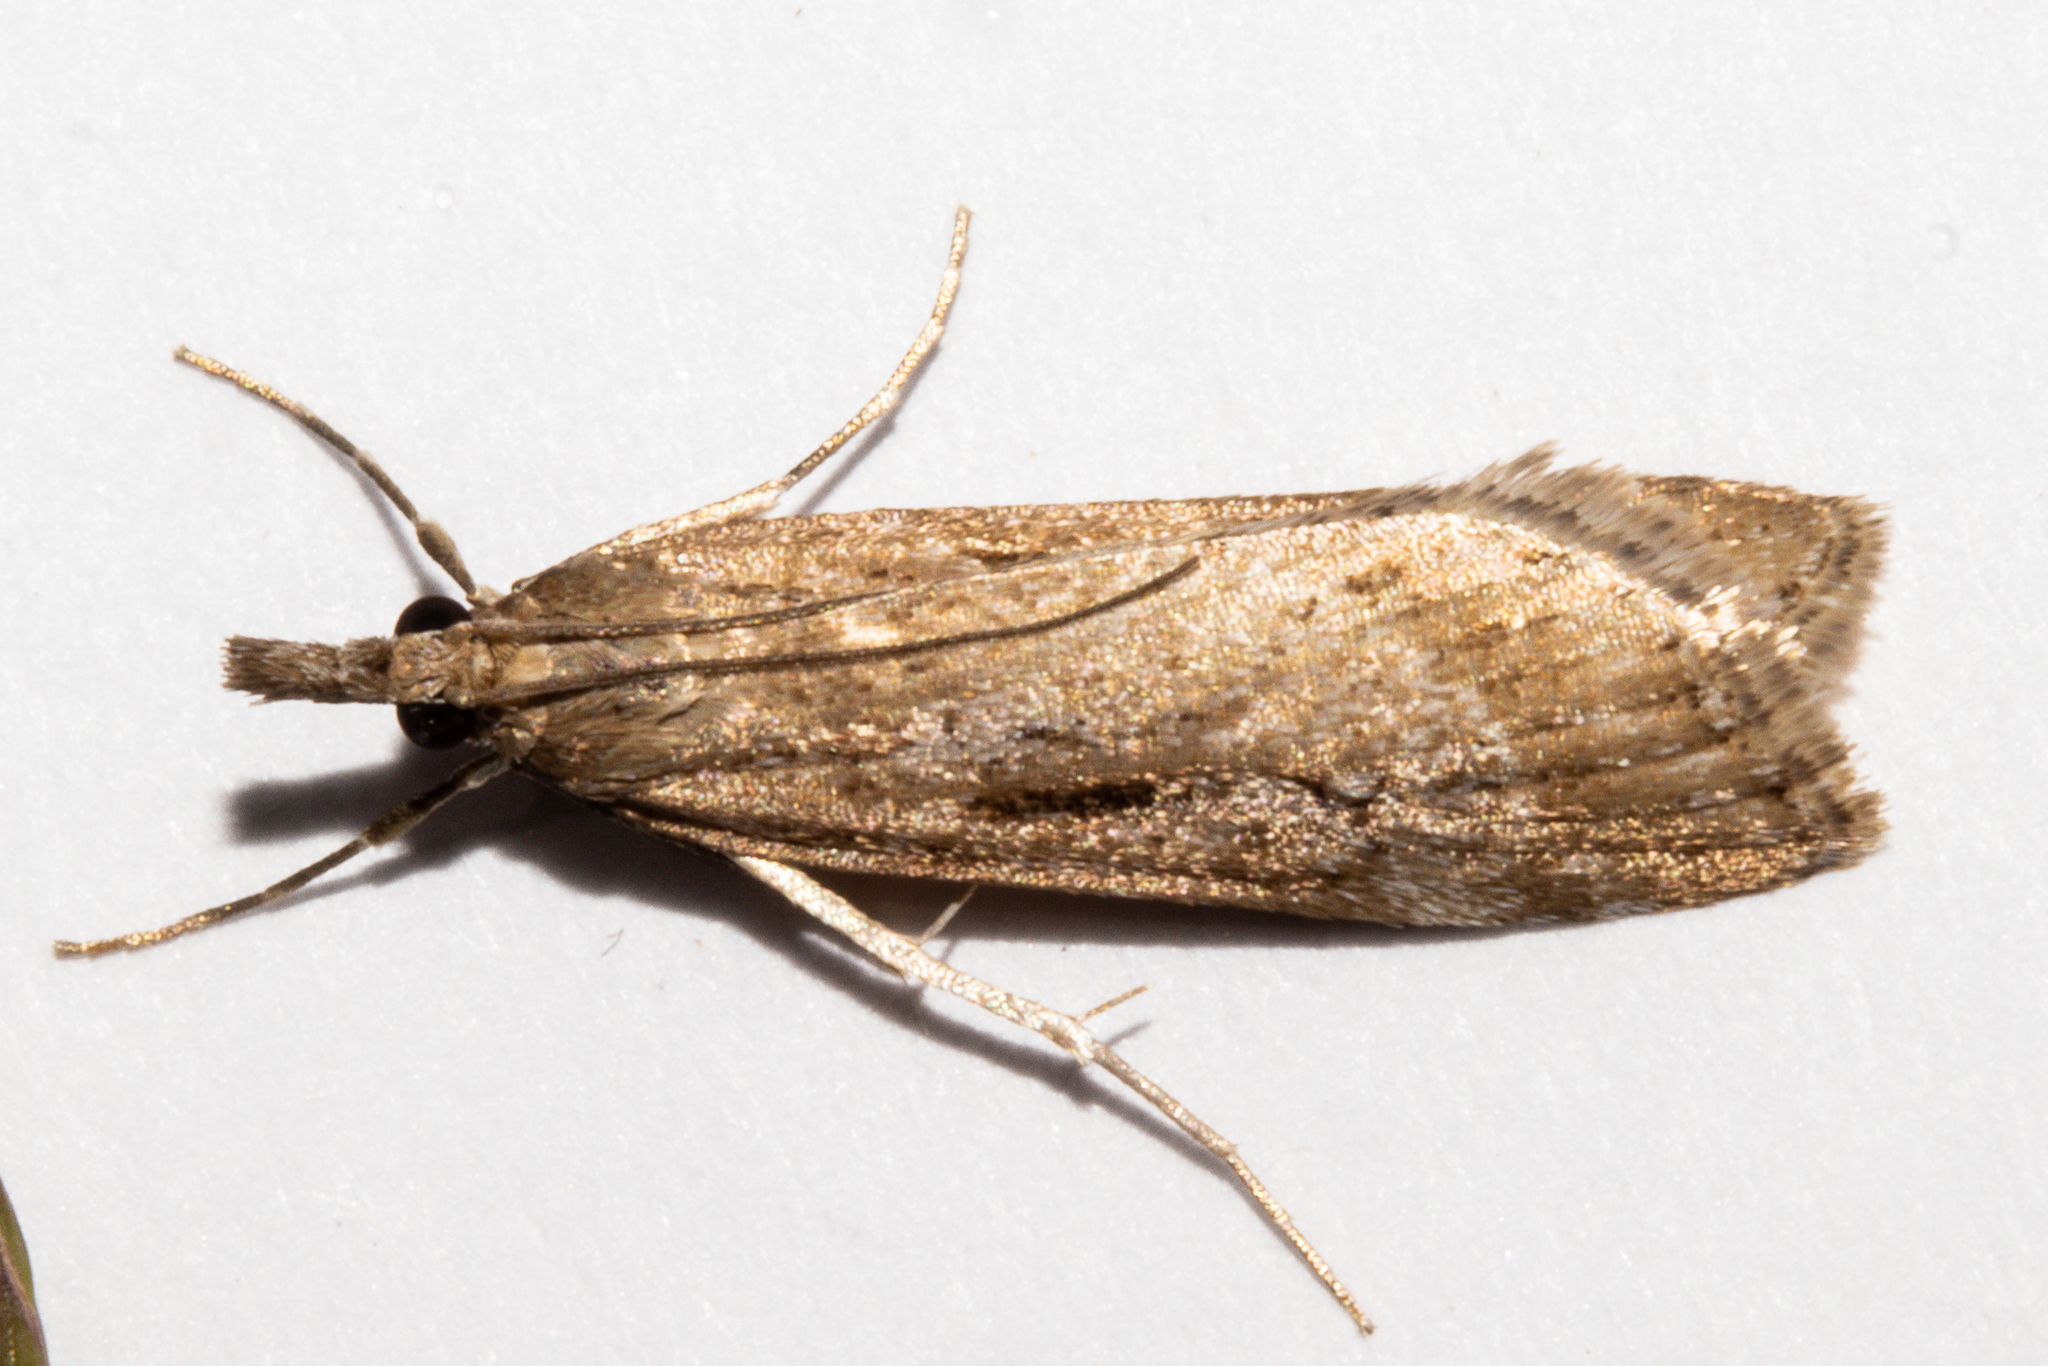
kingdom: Animalia
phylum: Arthropoda
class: Insecta
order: Lepidoptera
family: Crambidae
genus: Eudonia
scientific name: Eudonia chalara
